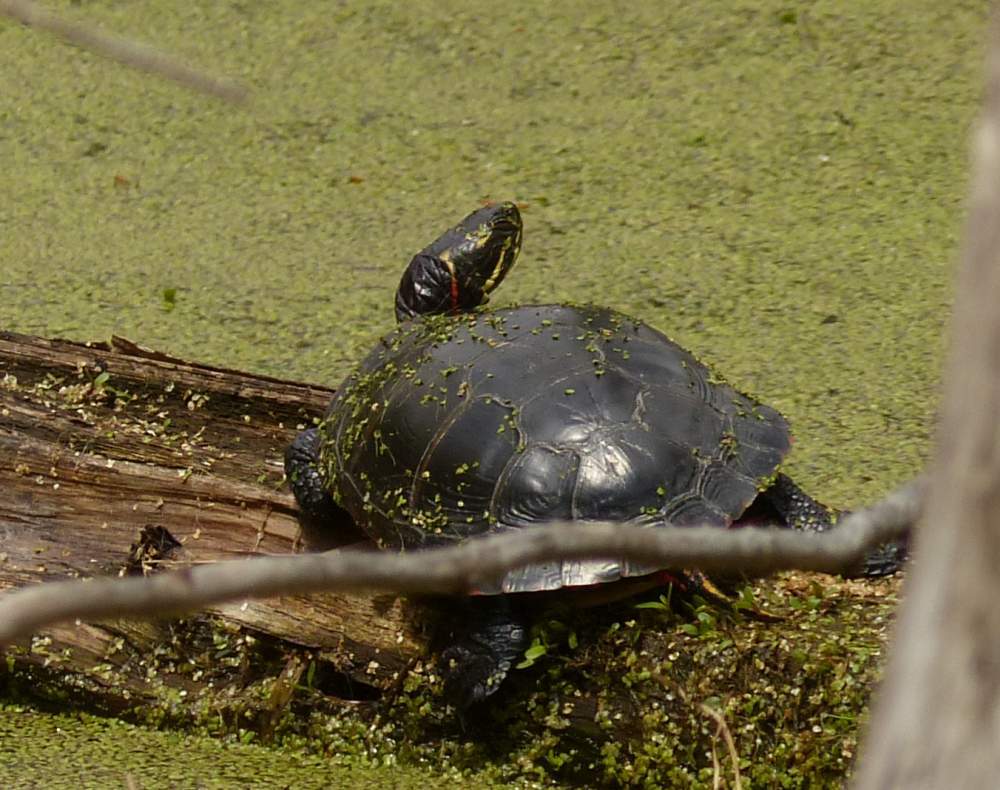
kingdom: Animalia
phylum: Chordata
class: Testudines
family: Emydidae
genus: Chrysemys
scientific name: Chrysemys picta
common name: Painted turtle
